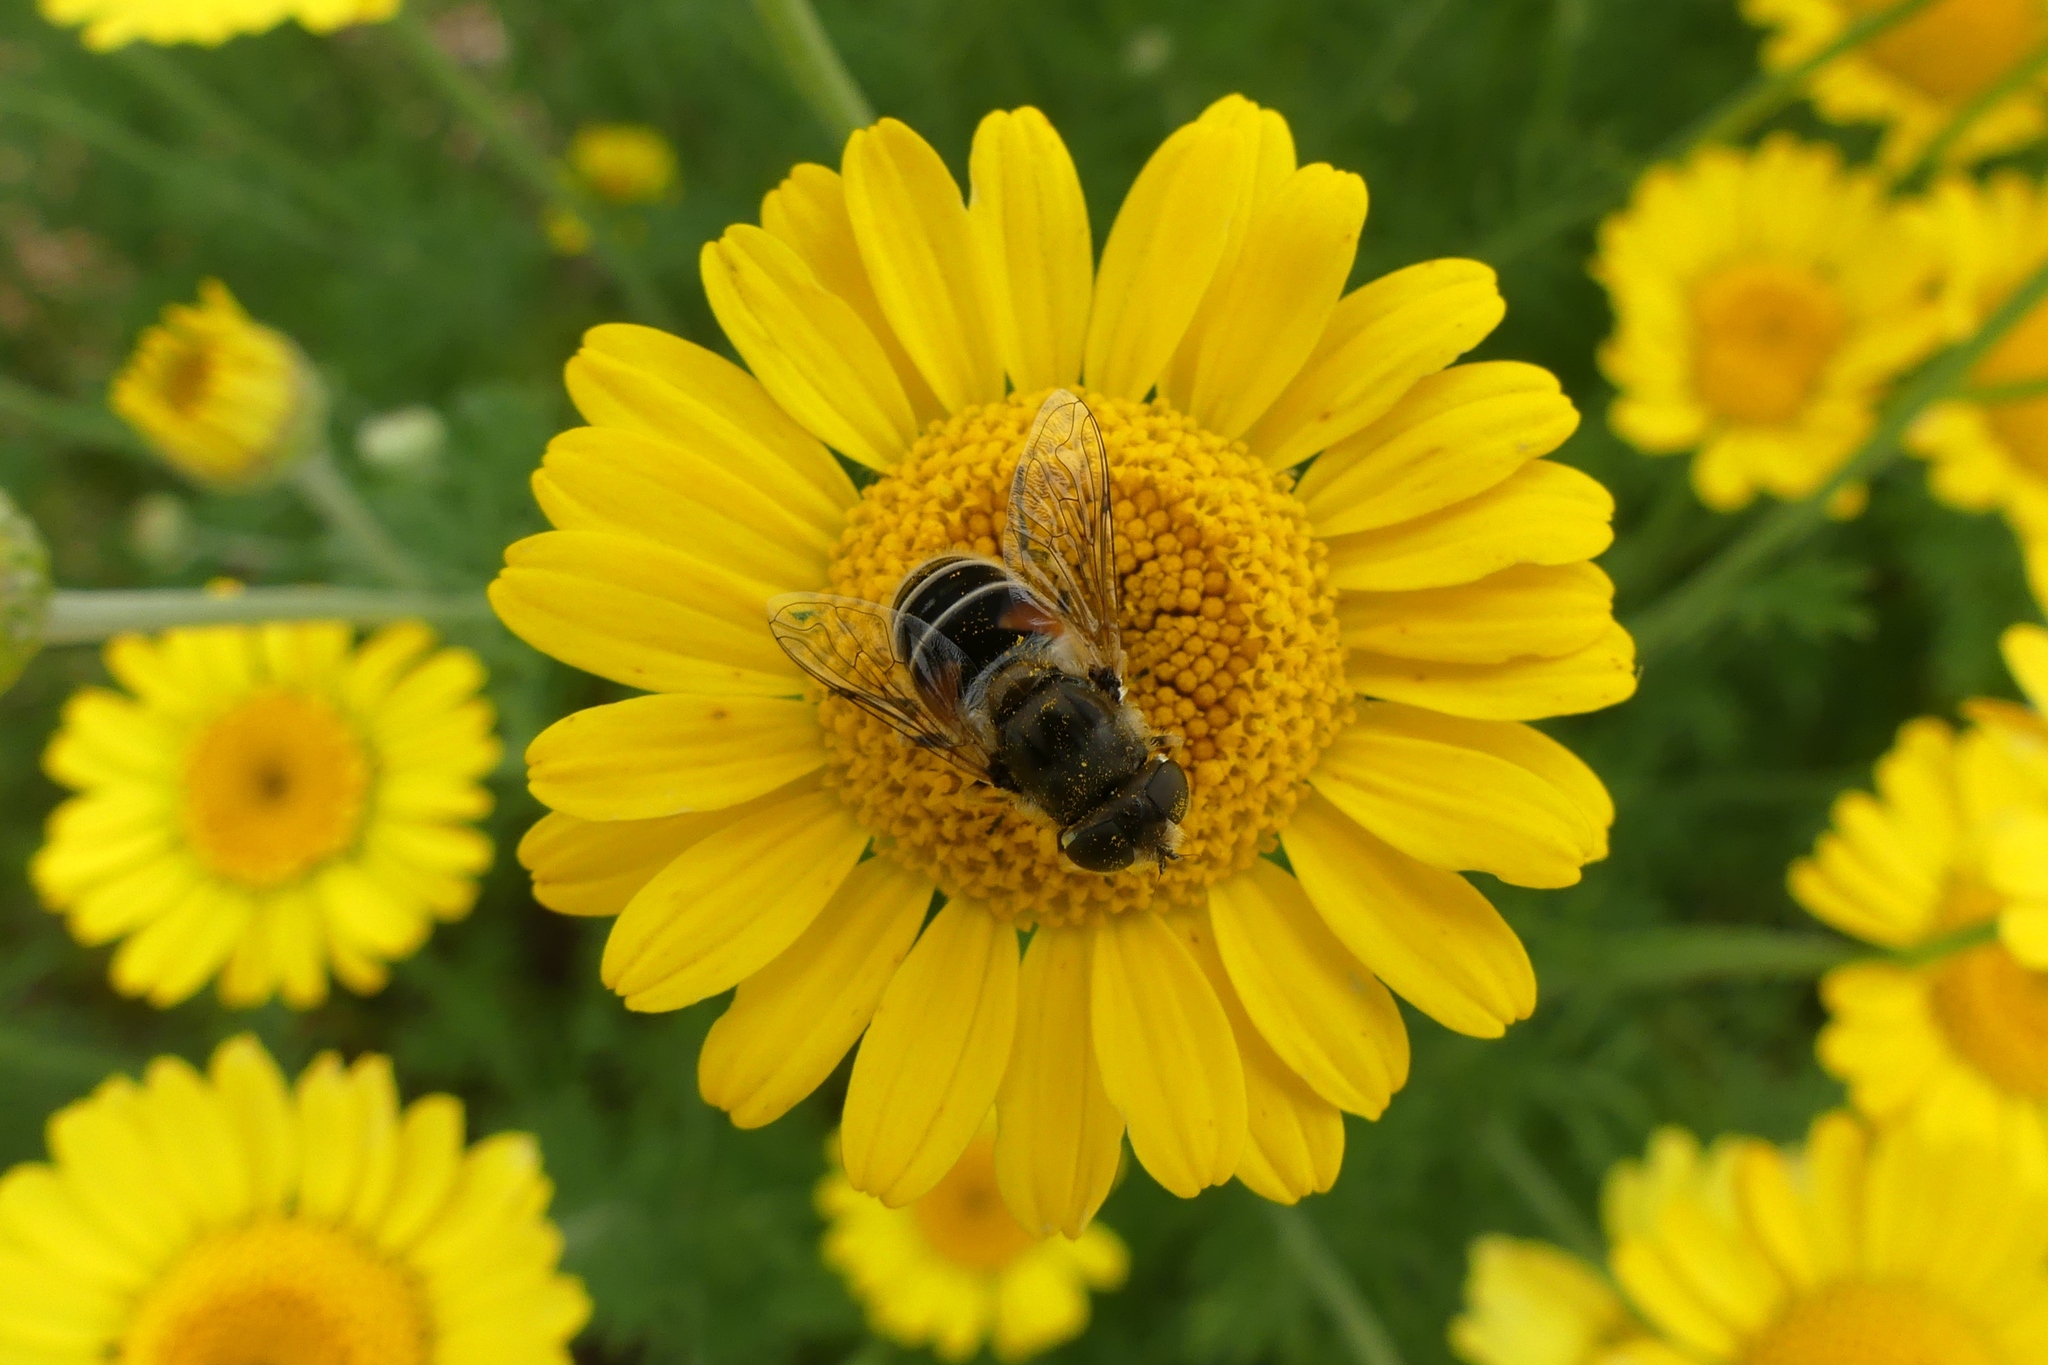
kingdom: Animalia
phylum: Arthropoda
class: Insecta
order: Diptera
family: Syrphidae
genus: Eristalis
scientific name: Eristalis arbustorum
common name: Hover fly
